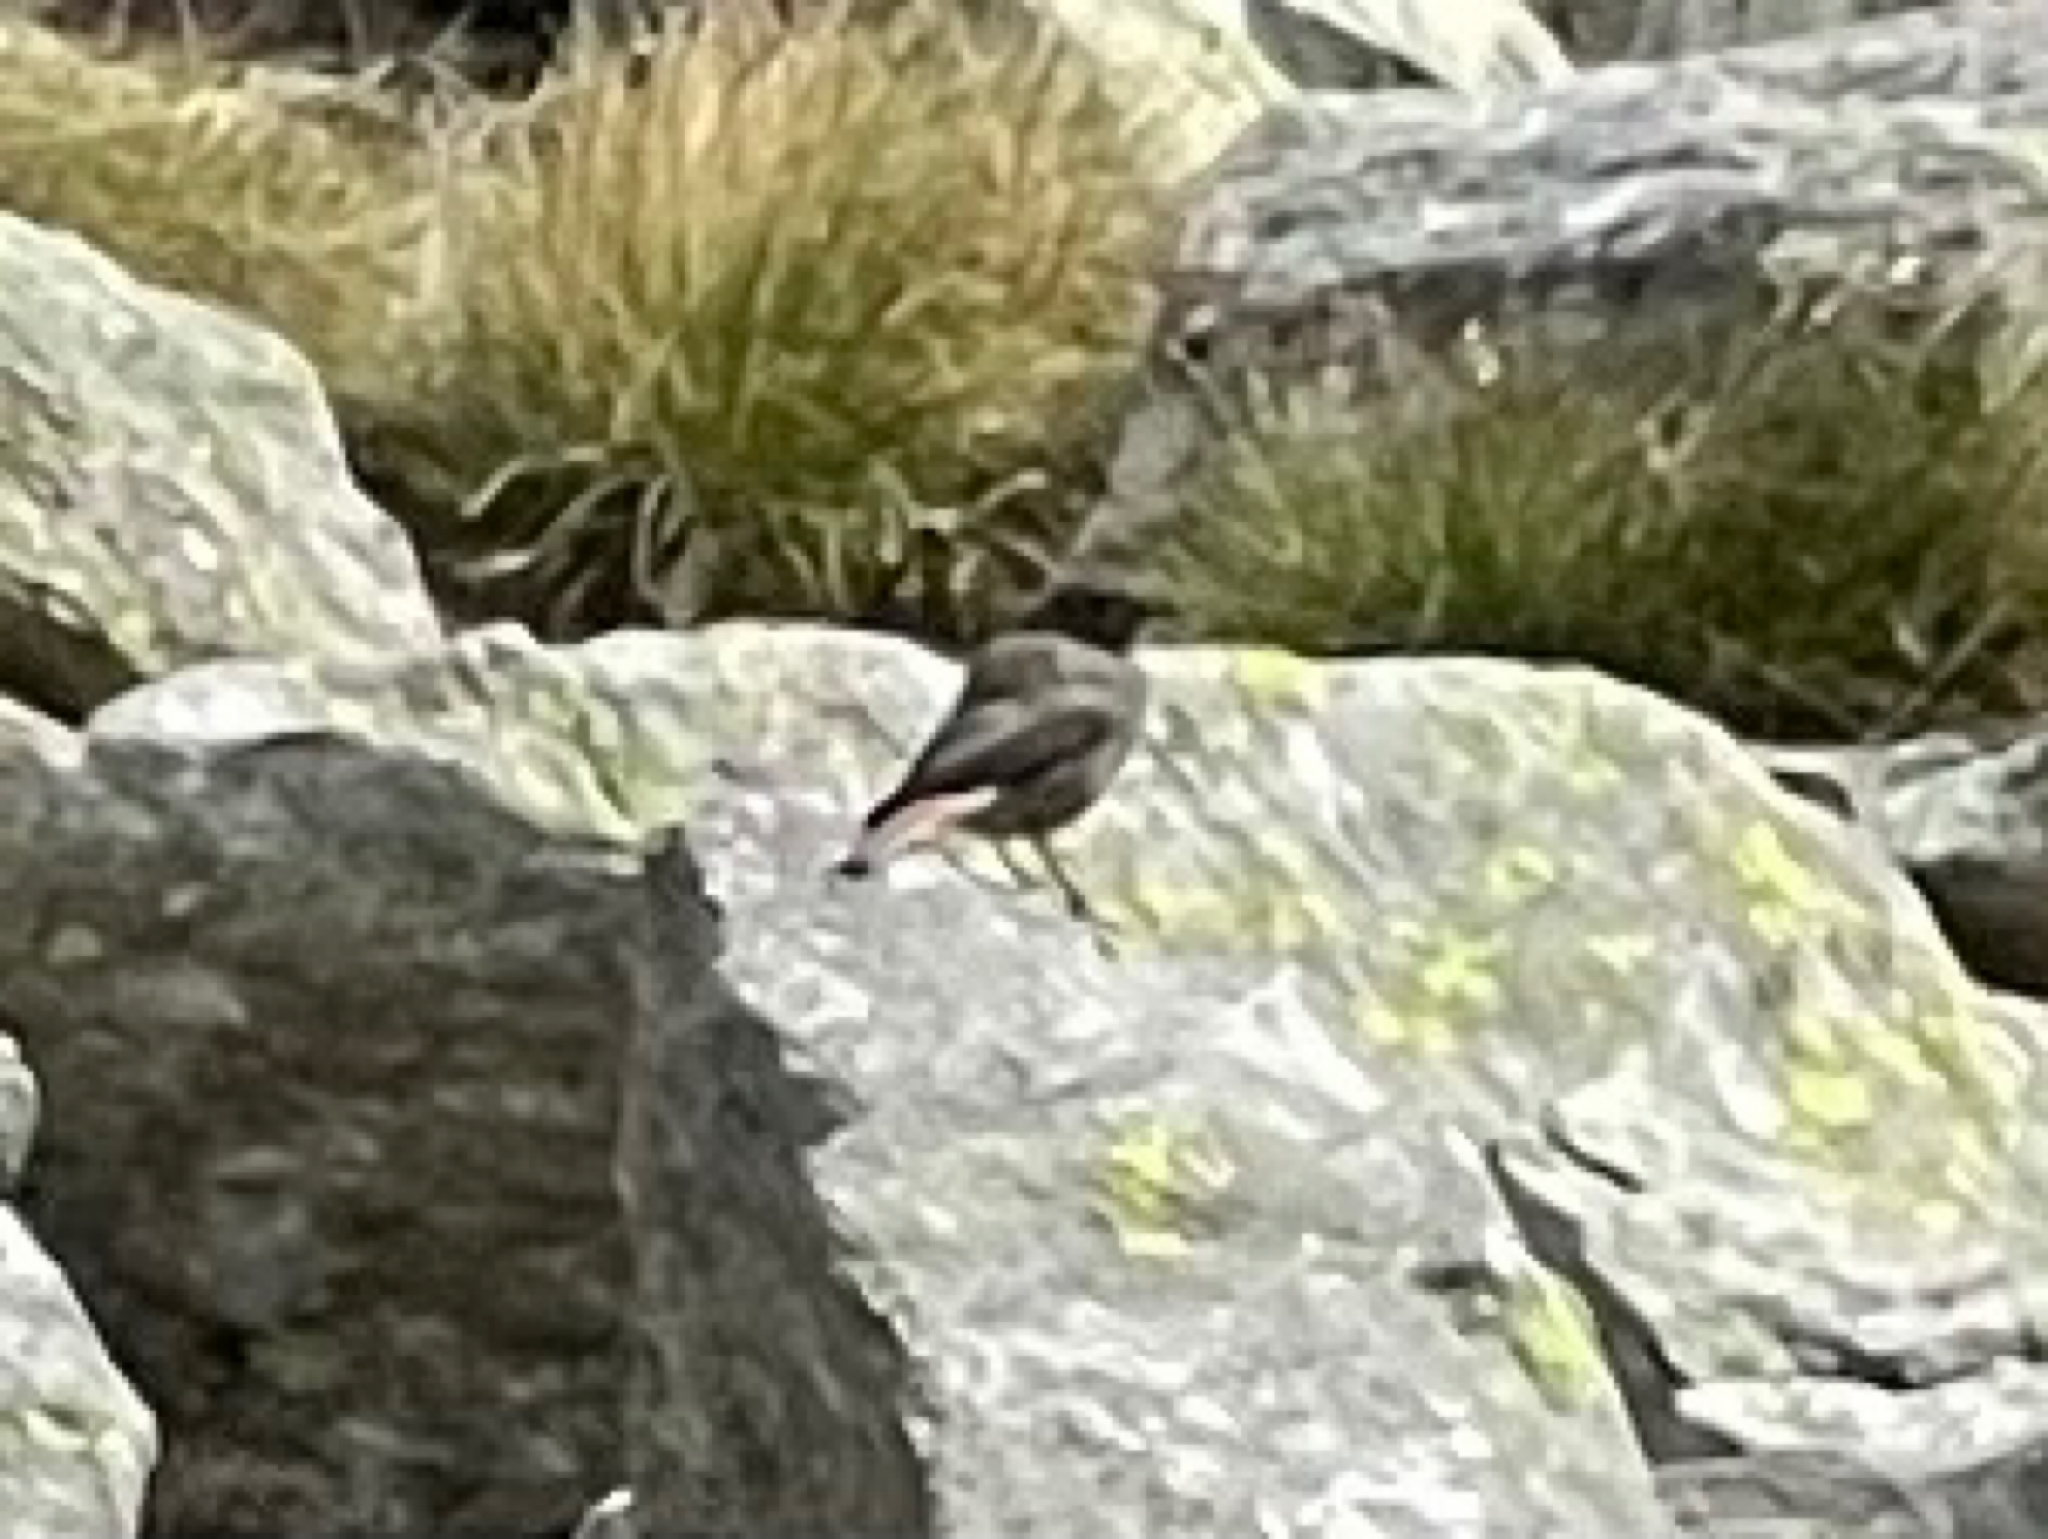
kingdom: Animalia
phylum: Chordata
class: Aves
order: Passeriformes
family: Muscicapidae
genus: Phoenicurus
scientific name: Phoenicurus ochruros
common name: Black redstart
